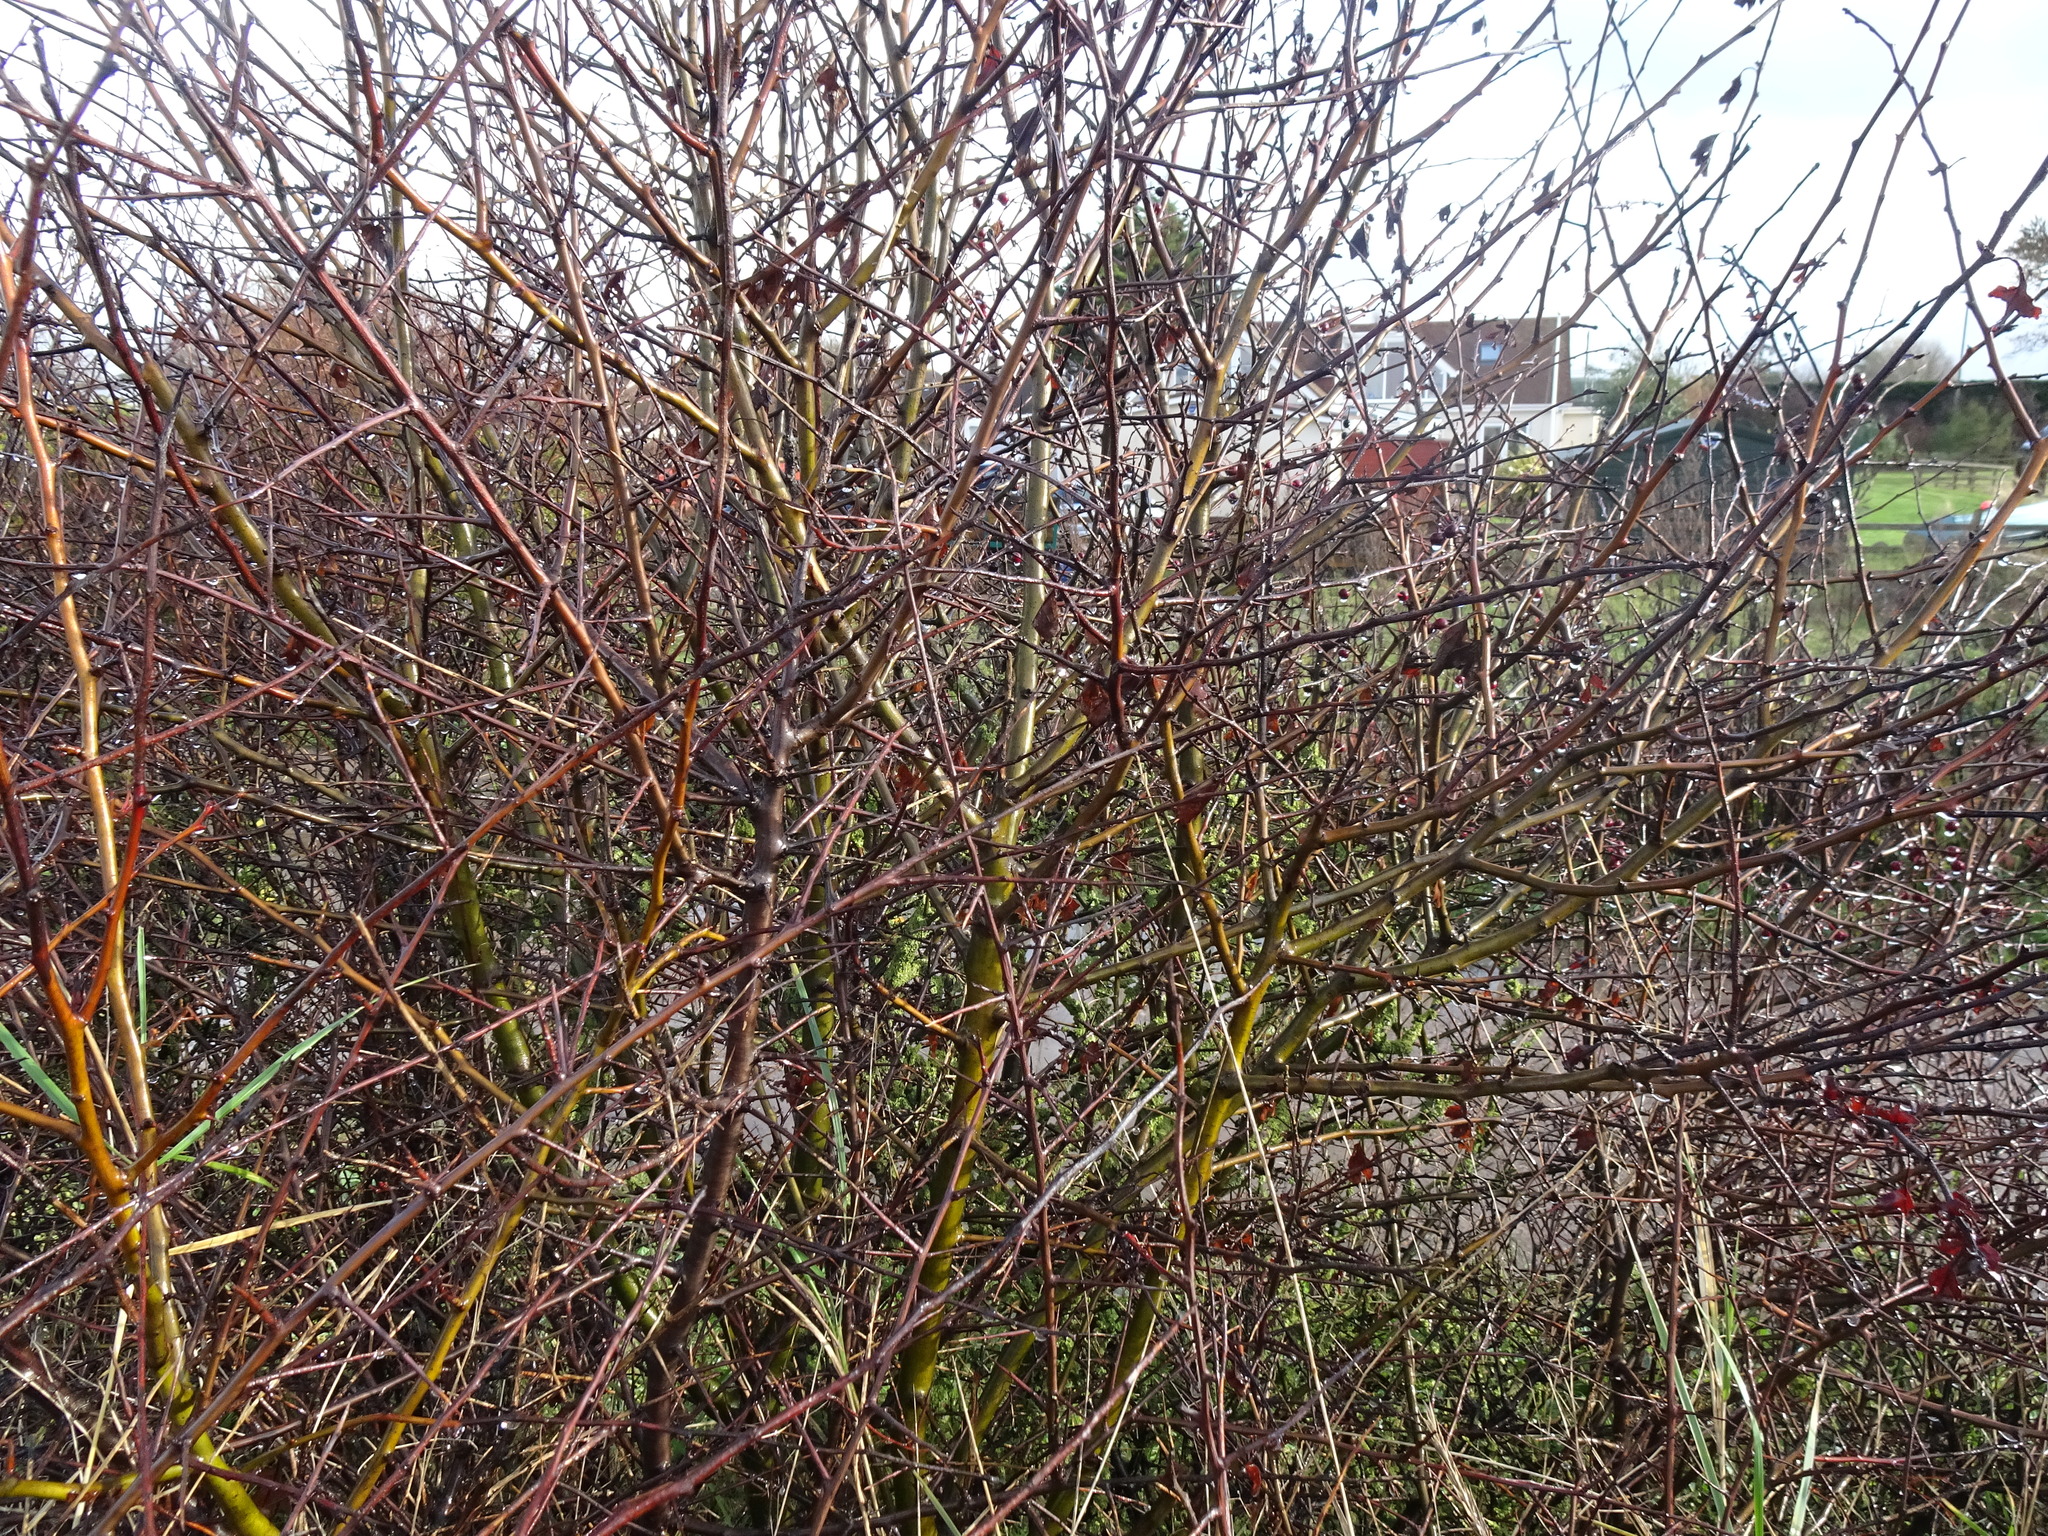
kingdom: Plantae
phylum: Tracheophyta
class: Magnoliopsida
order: Rosales
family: Rosaceae
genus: Prunus
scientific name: Prunus spinosa
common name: Blackthorn
